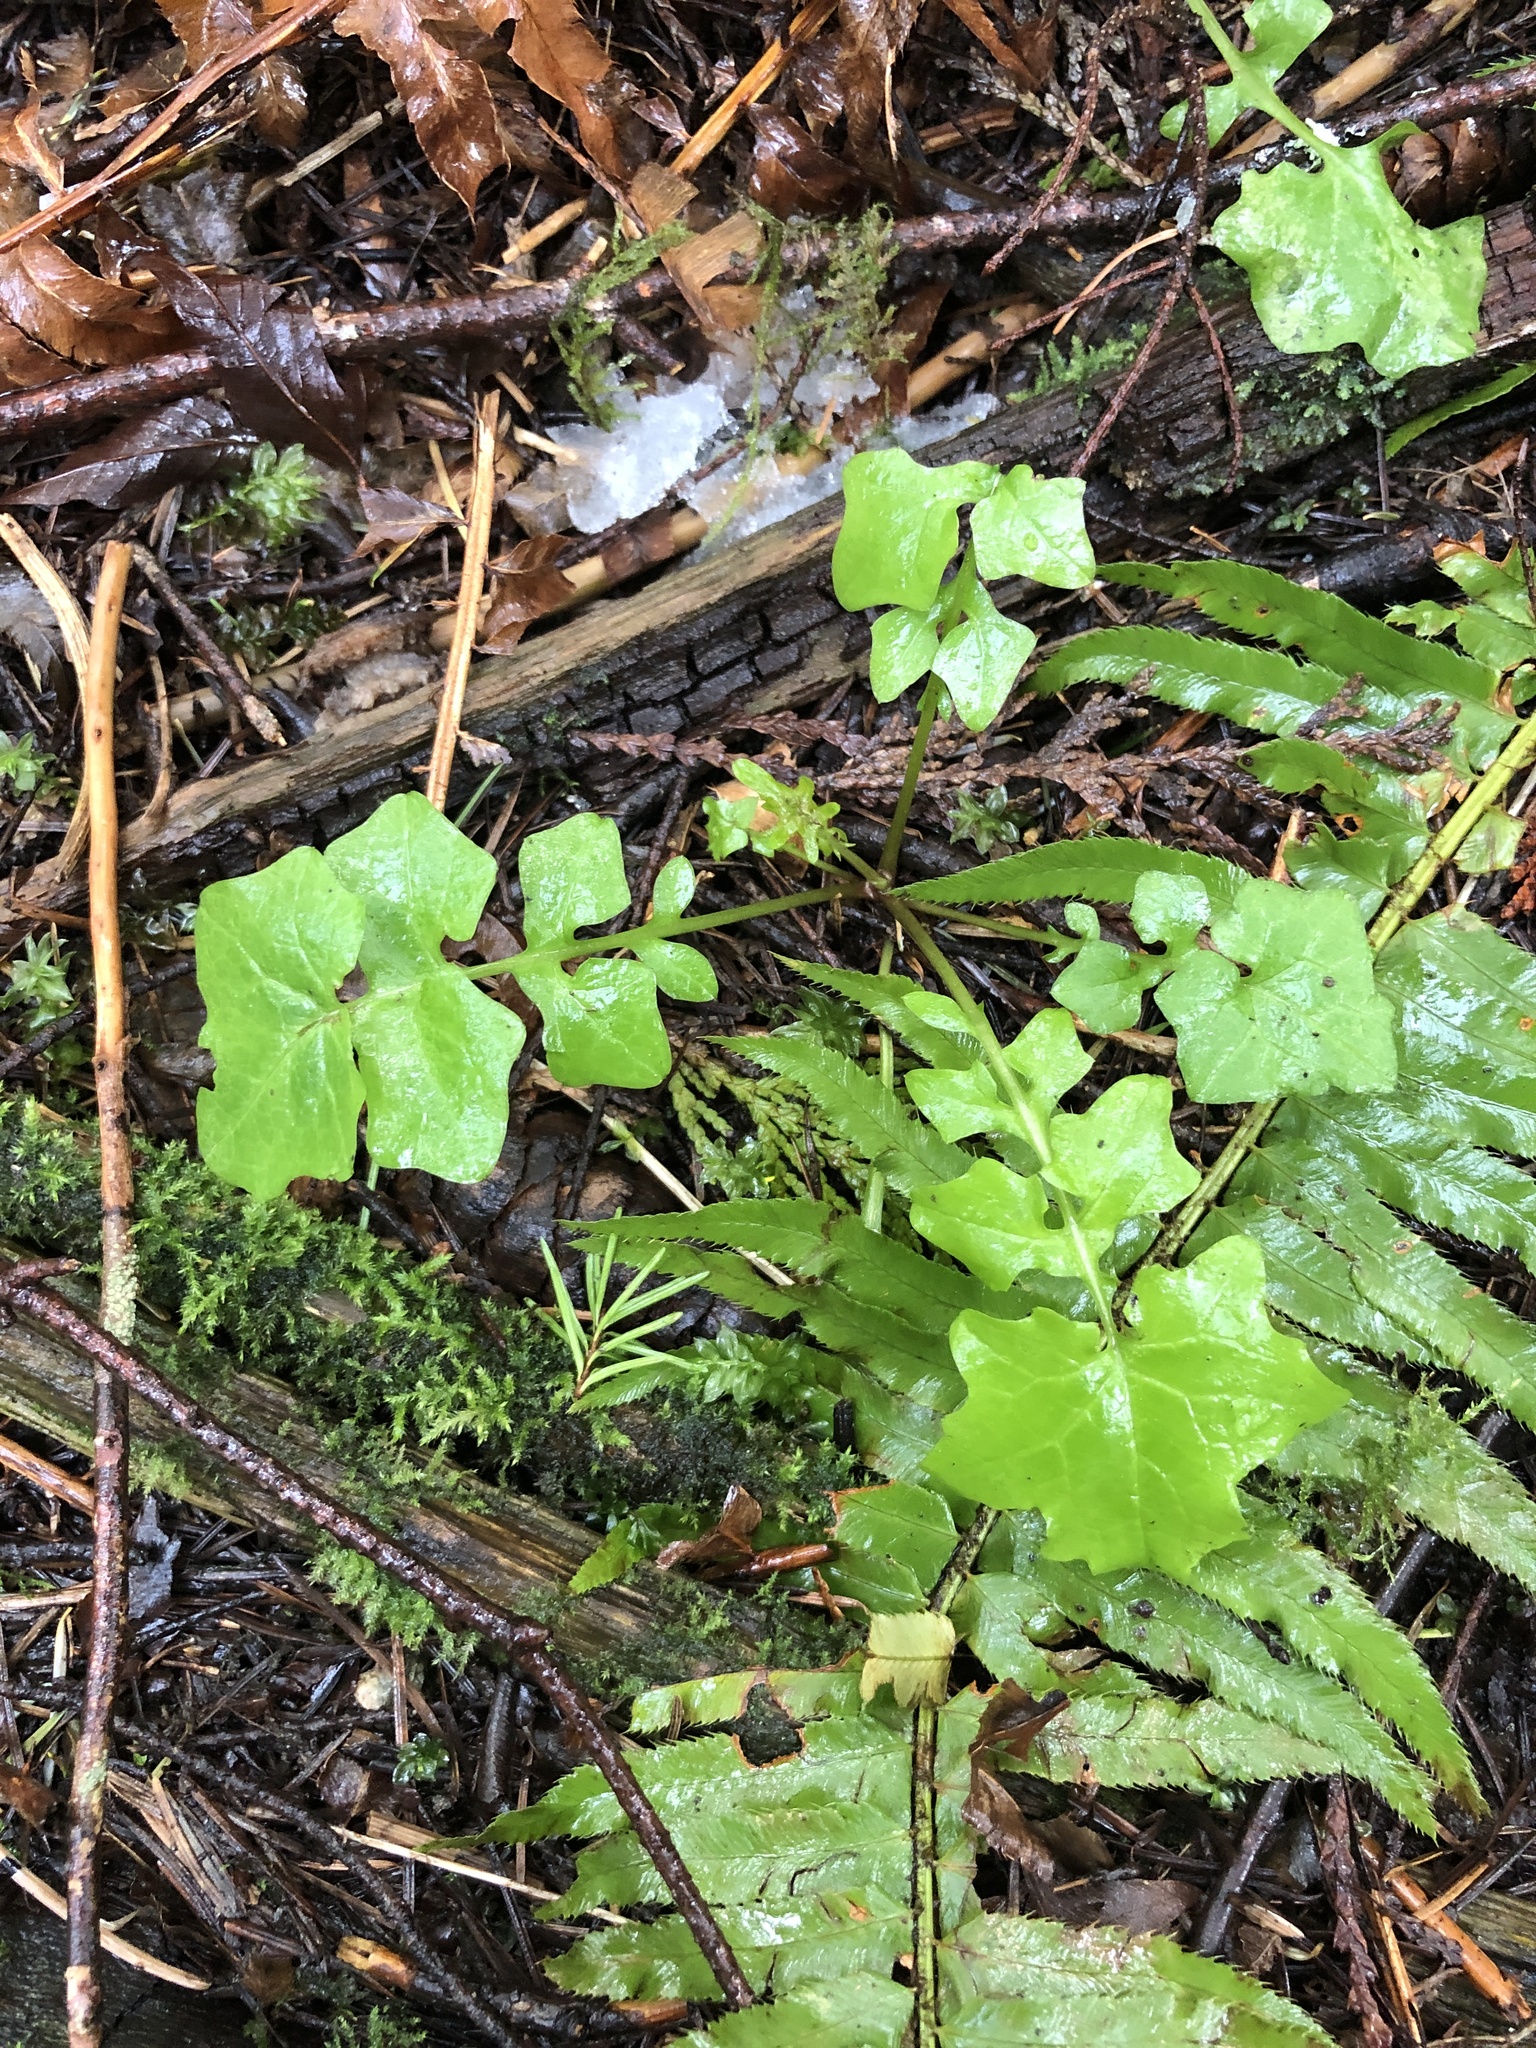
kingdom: Plantae
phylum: Tracheophyta
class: Magnoliopsida
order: Asterales
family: Asteraceae
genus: Mycelis
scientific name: Mycelis muralis
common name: Wall lettuce
